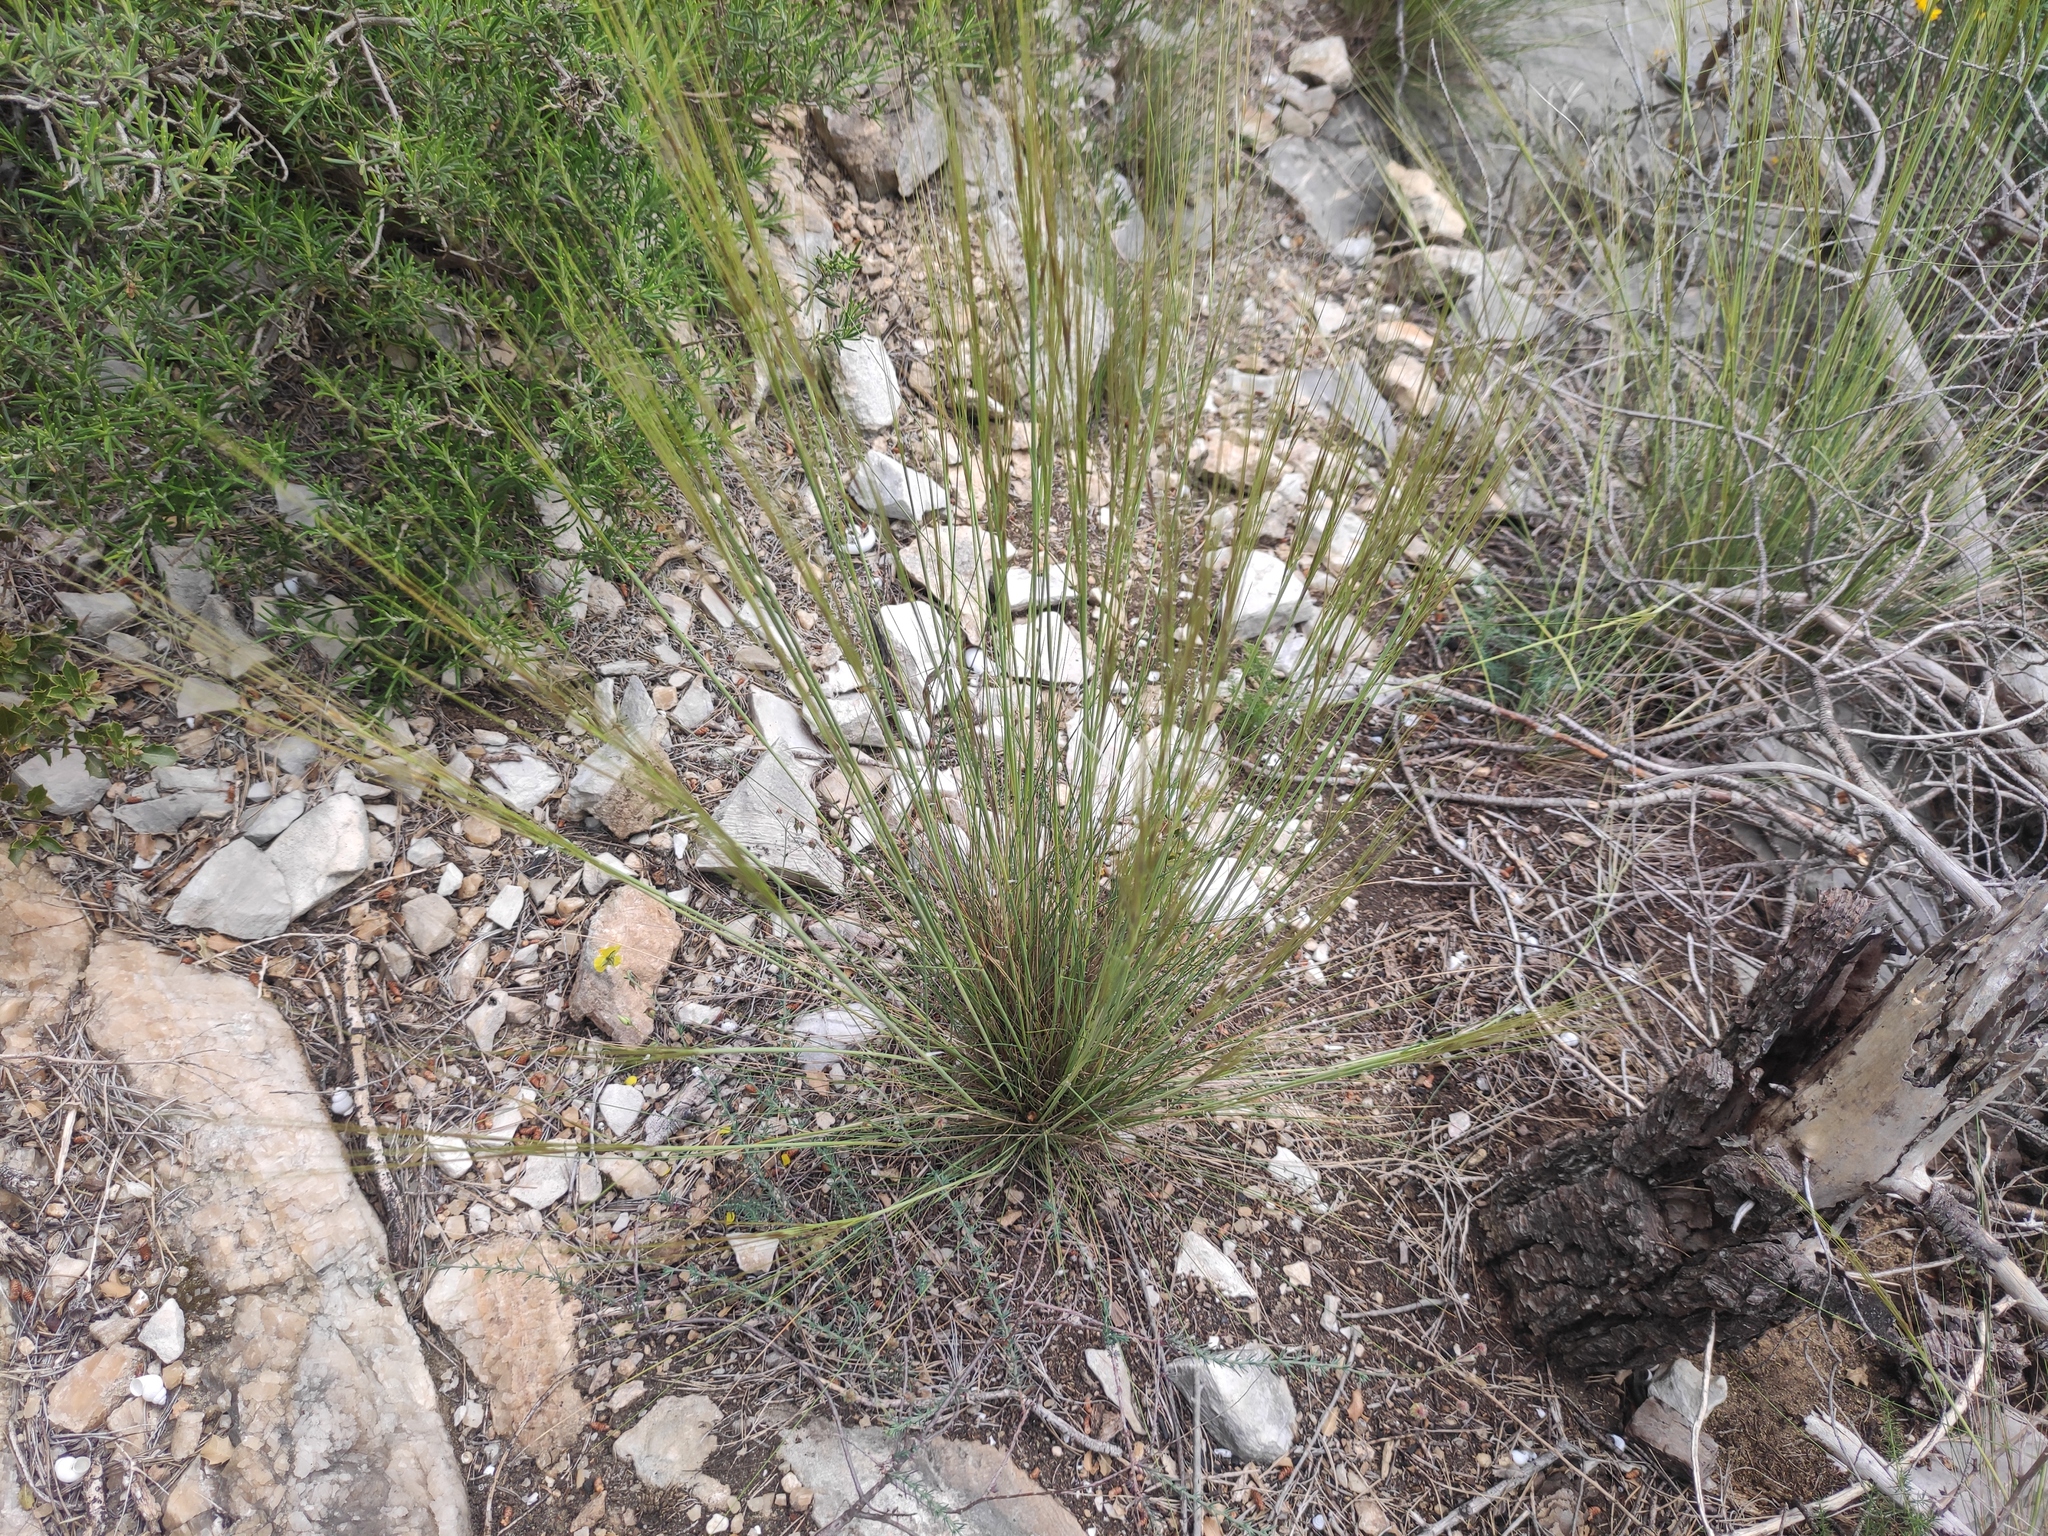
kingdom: Plantae
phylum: Tracheophyta
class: Liliopsida
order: Poales
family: Poaceae
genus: Stipa
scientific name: Stipa offneri
